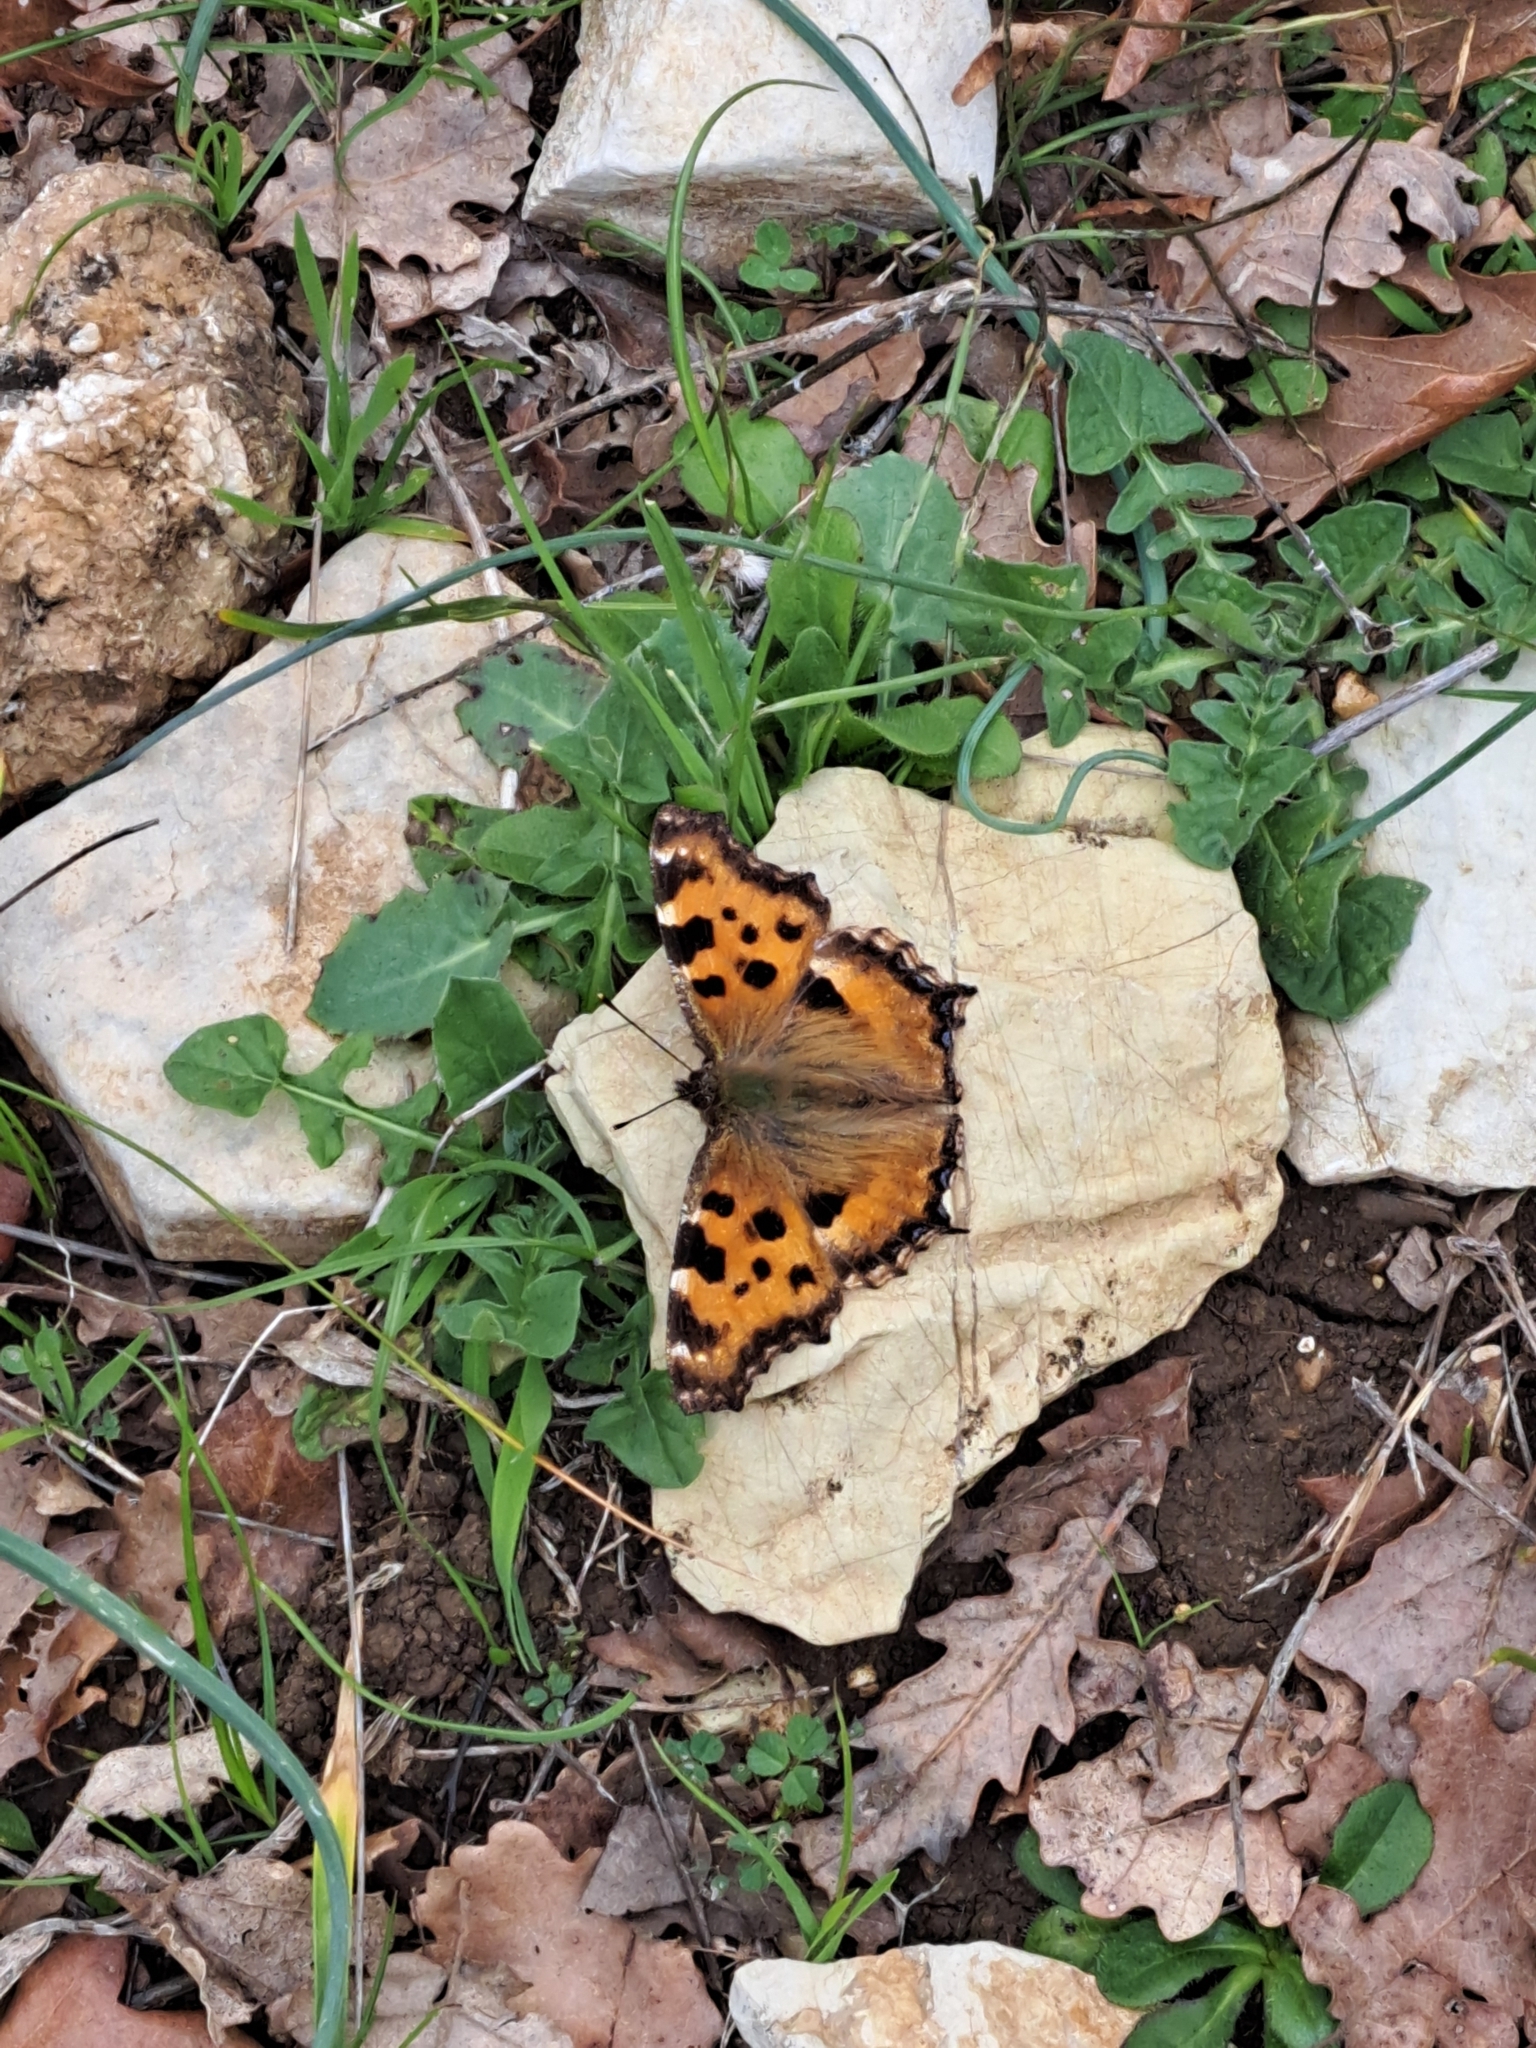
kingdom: Animalia
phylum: Arthropoda
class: Insecta
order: Lepidoptera
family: Nymphalidae
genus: Nymphalis
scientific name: Nymphalis polychloros
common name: Large tortoiseshell
